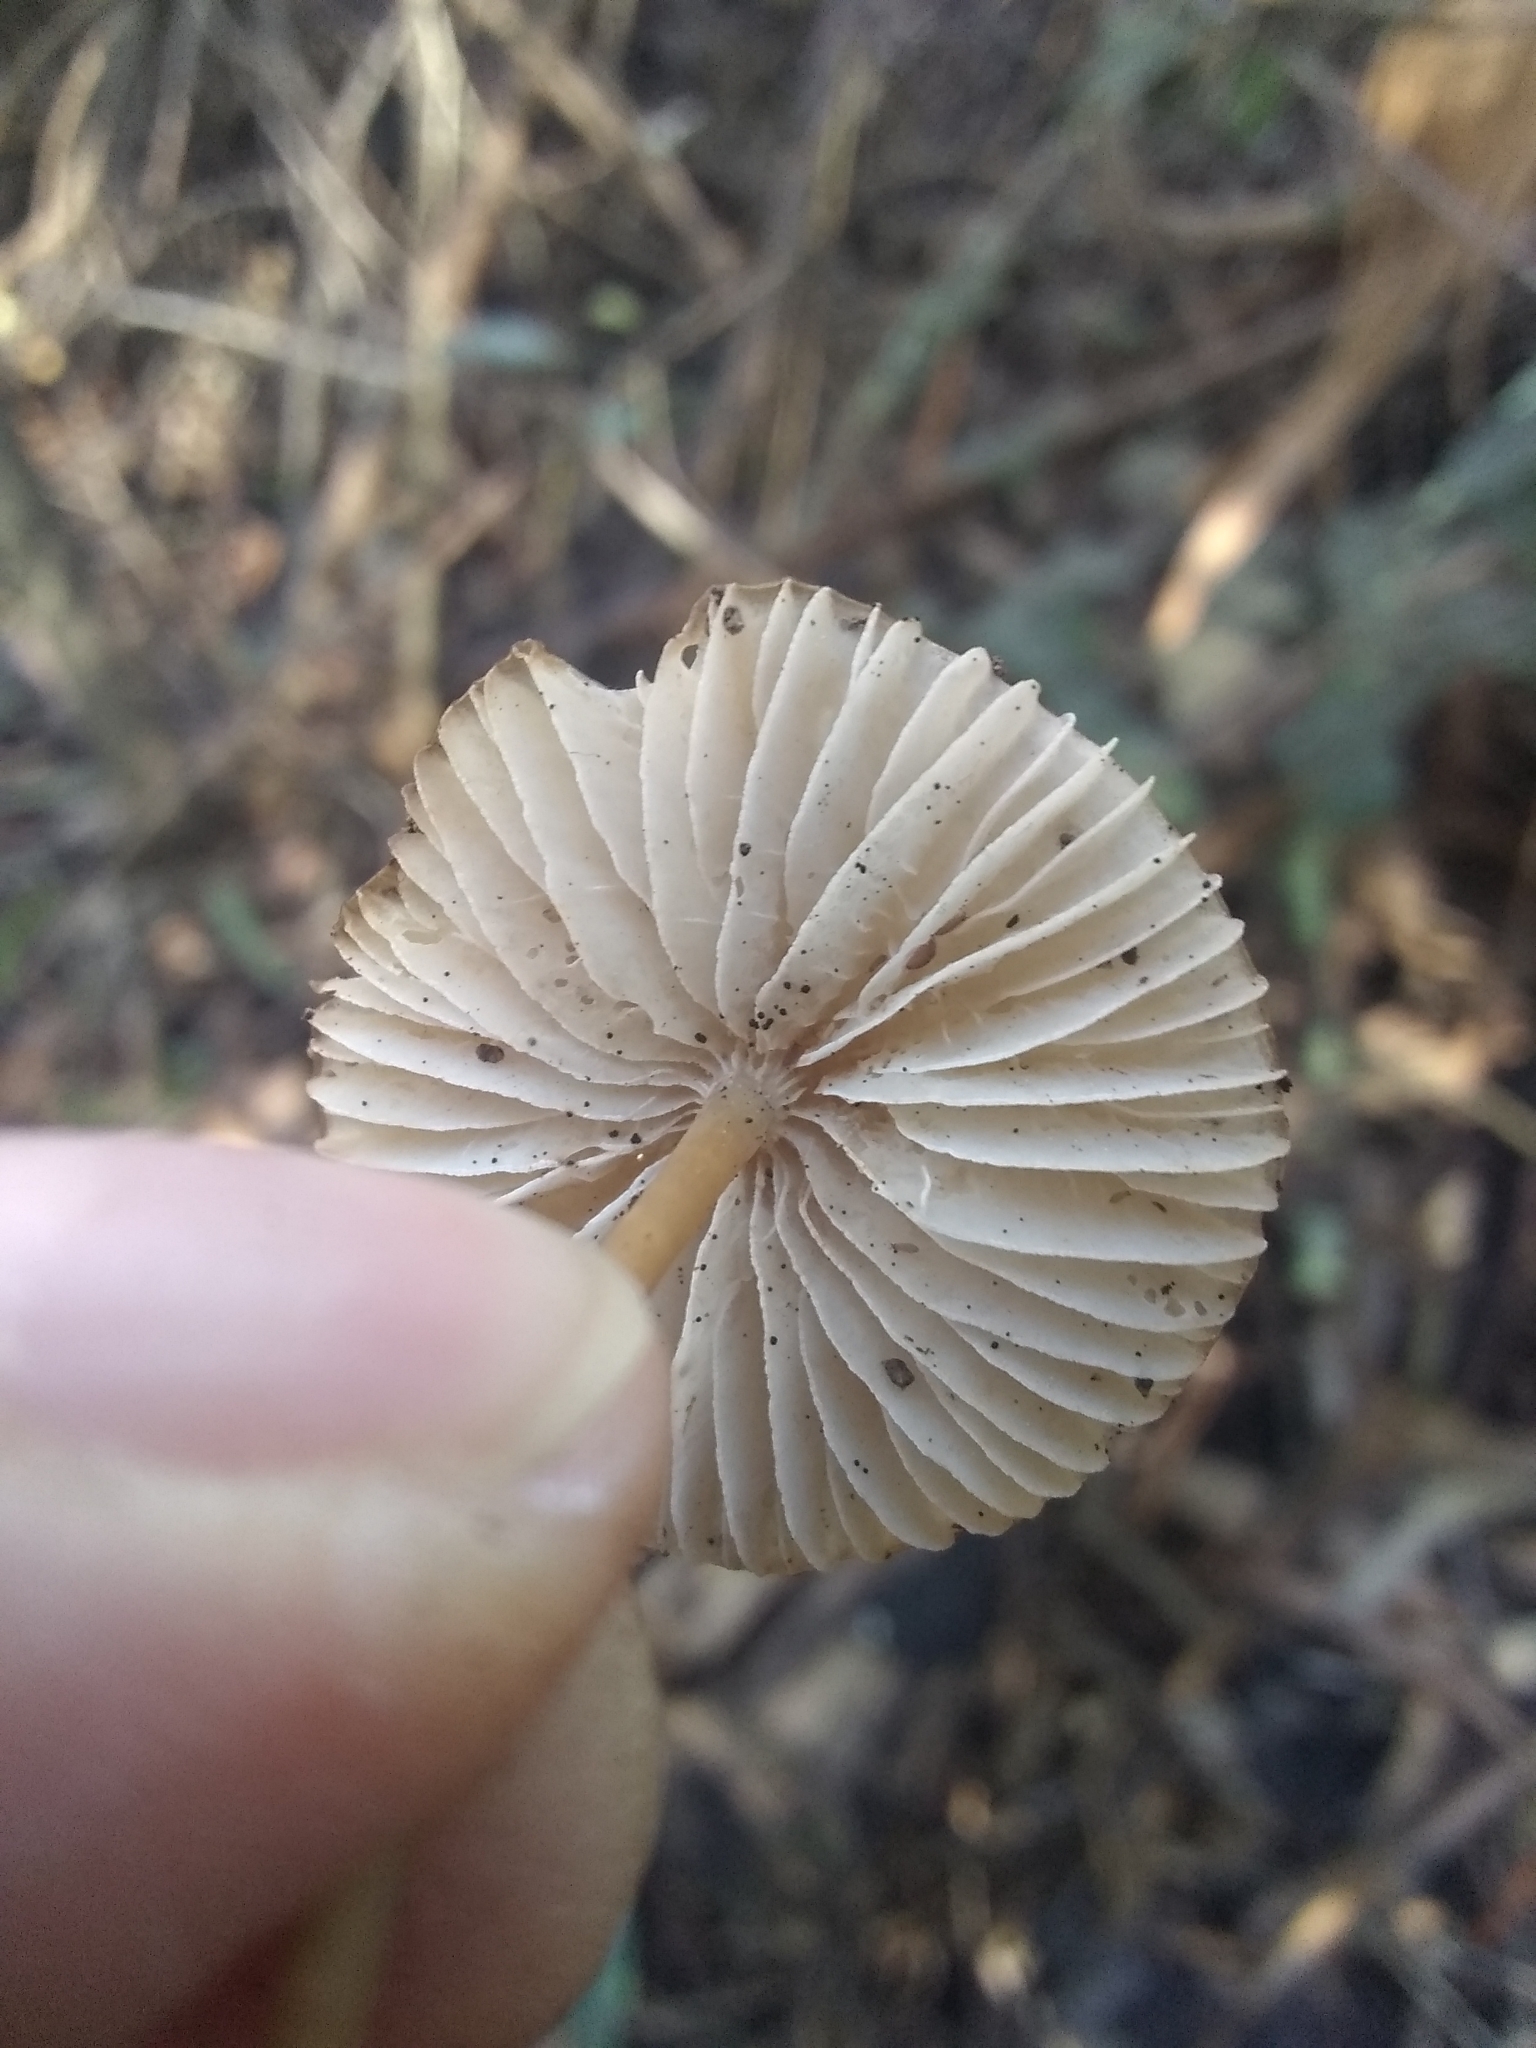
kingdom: Fungi
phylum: Basidiomycota
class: Agaricomycetes
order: Agaricales
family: Mycenaceae
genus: Mycena
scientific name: Mycena galericulata
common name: Bonnet mycena
